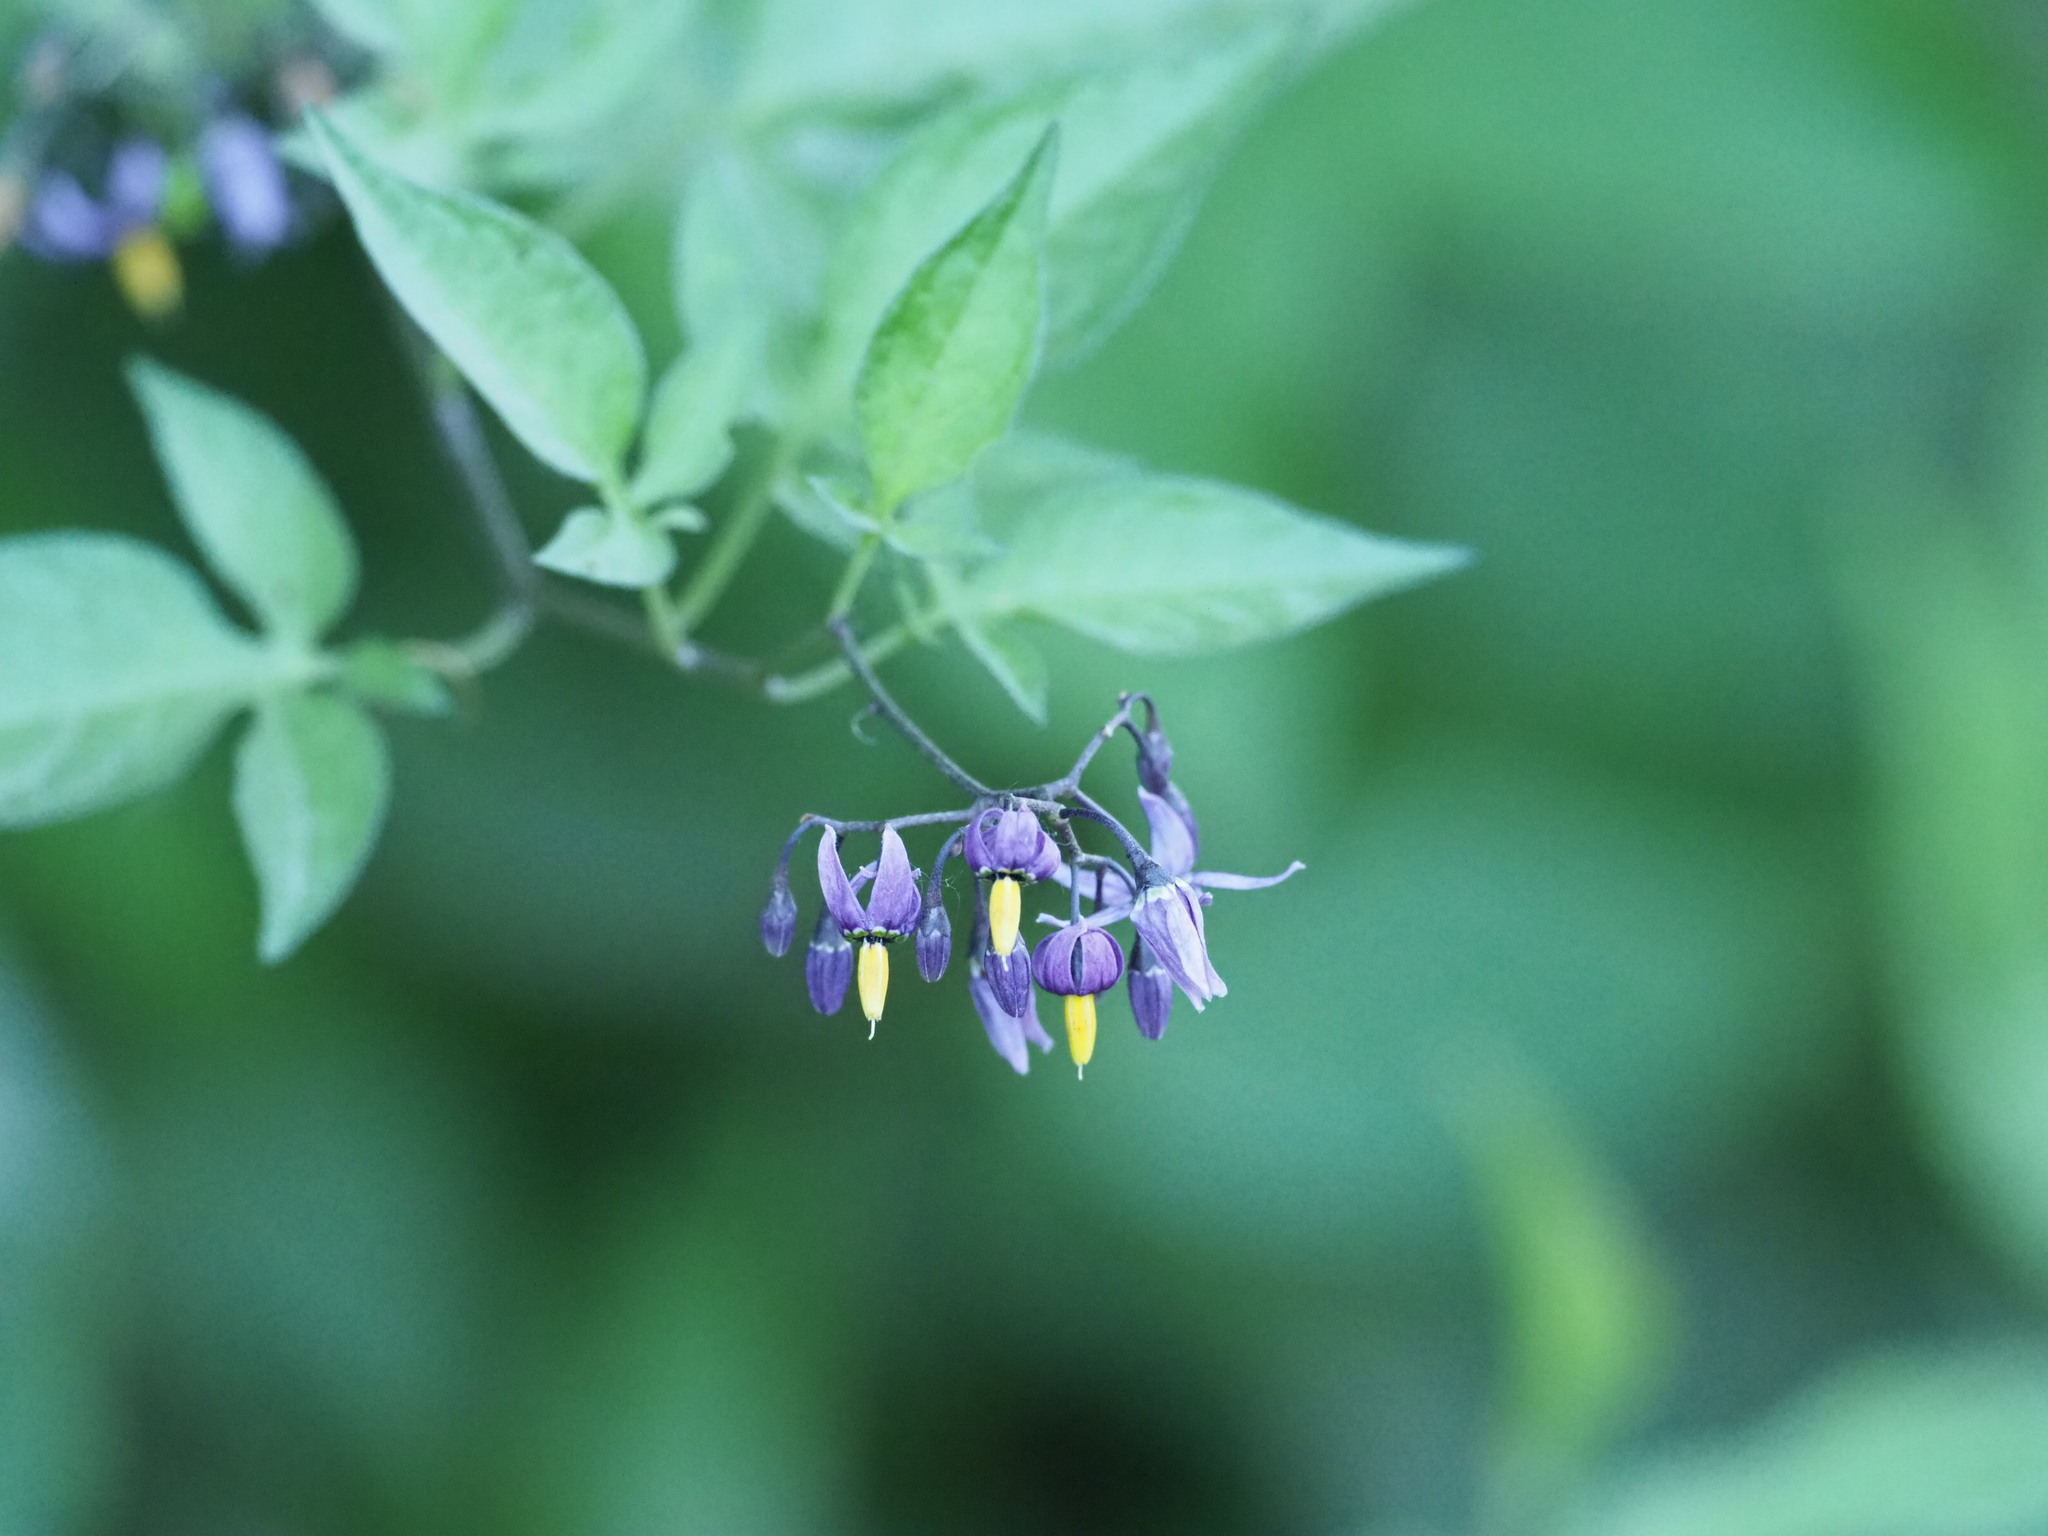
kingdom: Plantae
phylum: Tracheophyta
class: Magnoliopsida
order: Solanales
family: Solanaceae
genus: Solanum
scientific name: Solanum dulcamara
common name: Climbing nightshade
